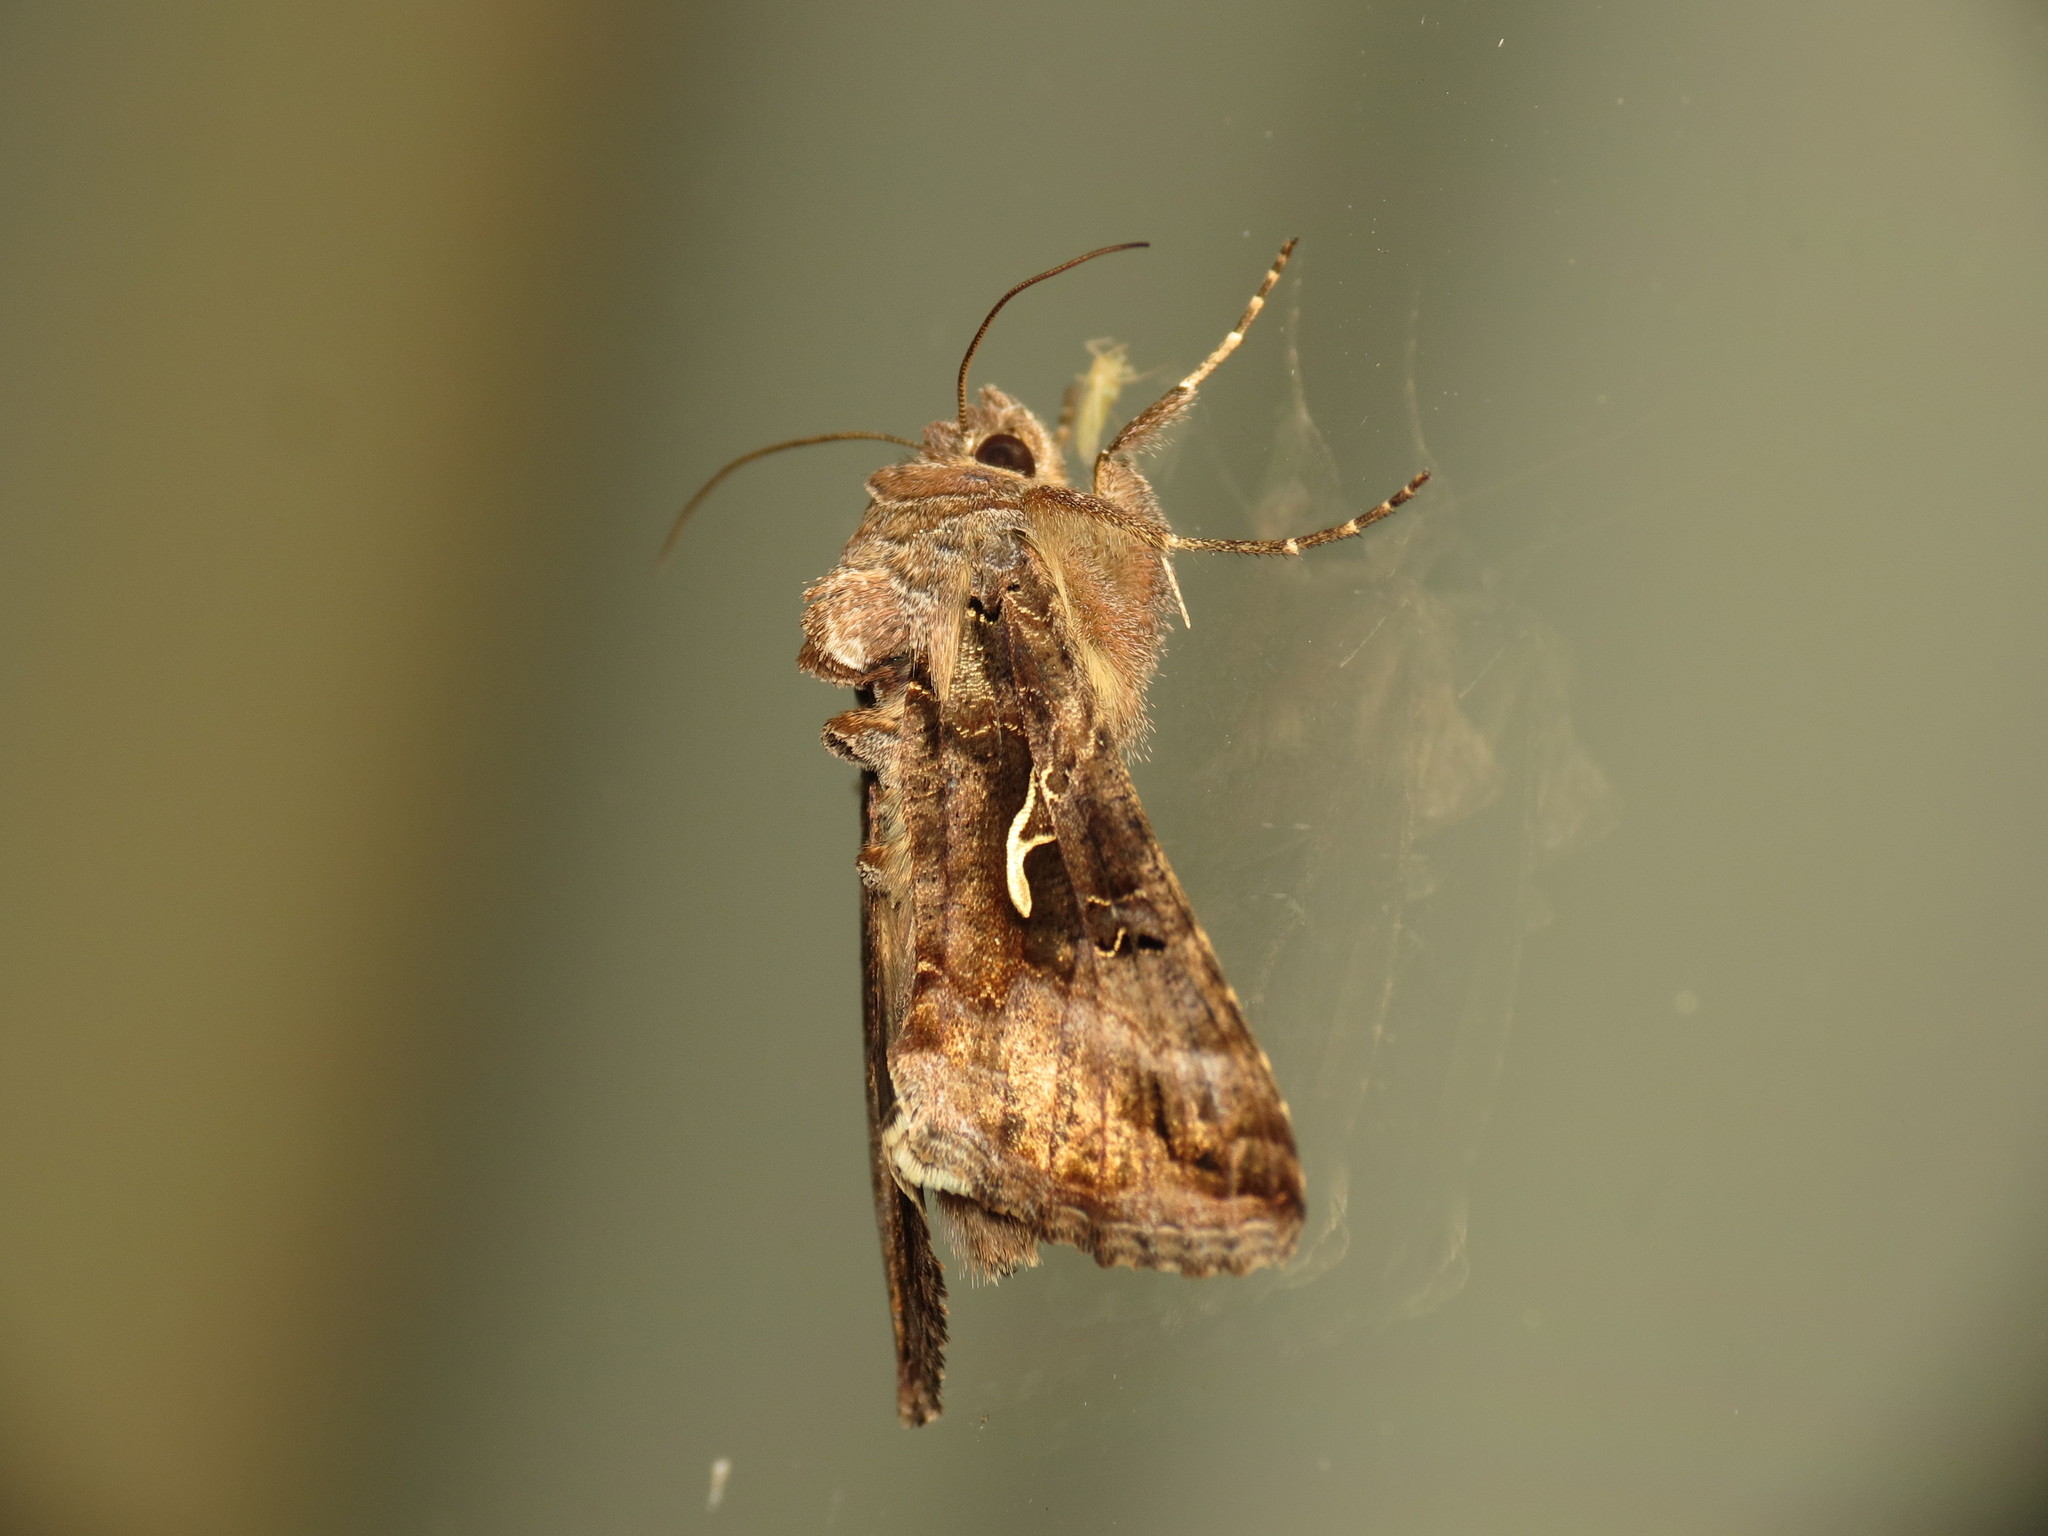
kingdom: Animalia
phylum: Arthropoda
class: Insecta
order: Lepidoptera
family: Noctuidae
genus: Autographa
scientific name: Autographa gamma
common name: Silver y
